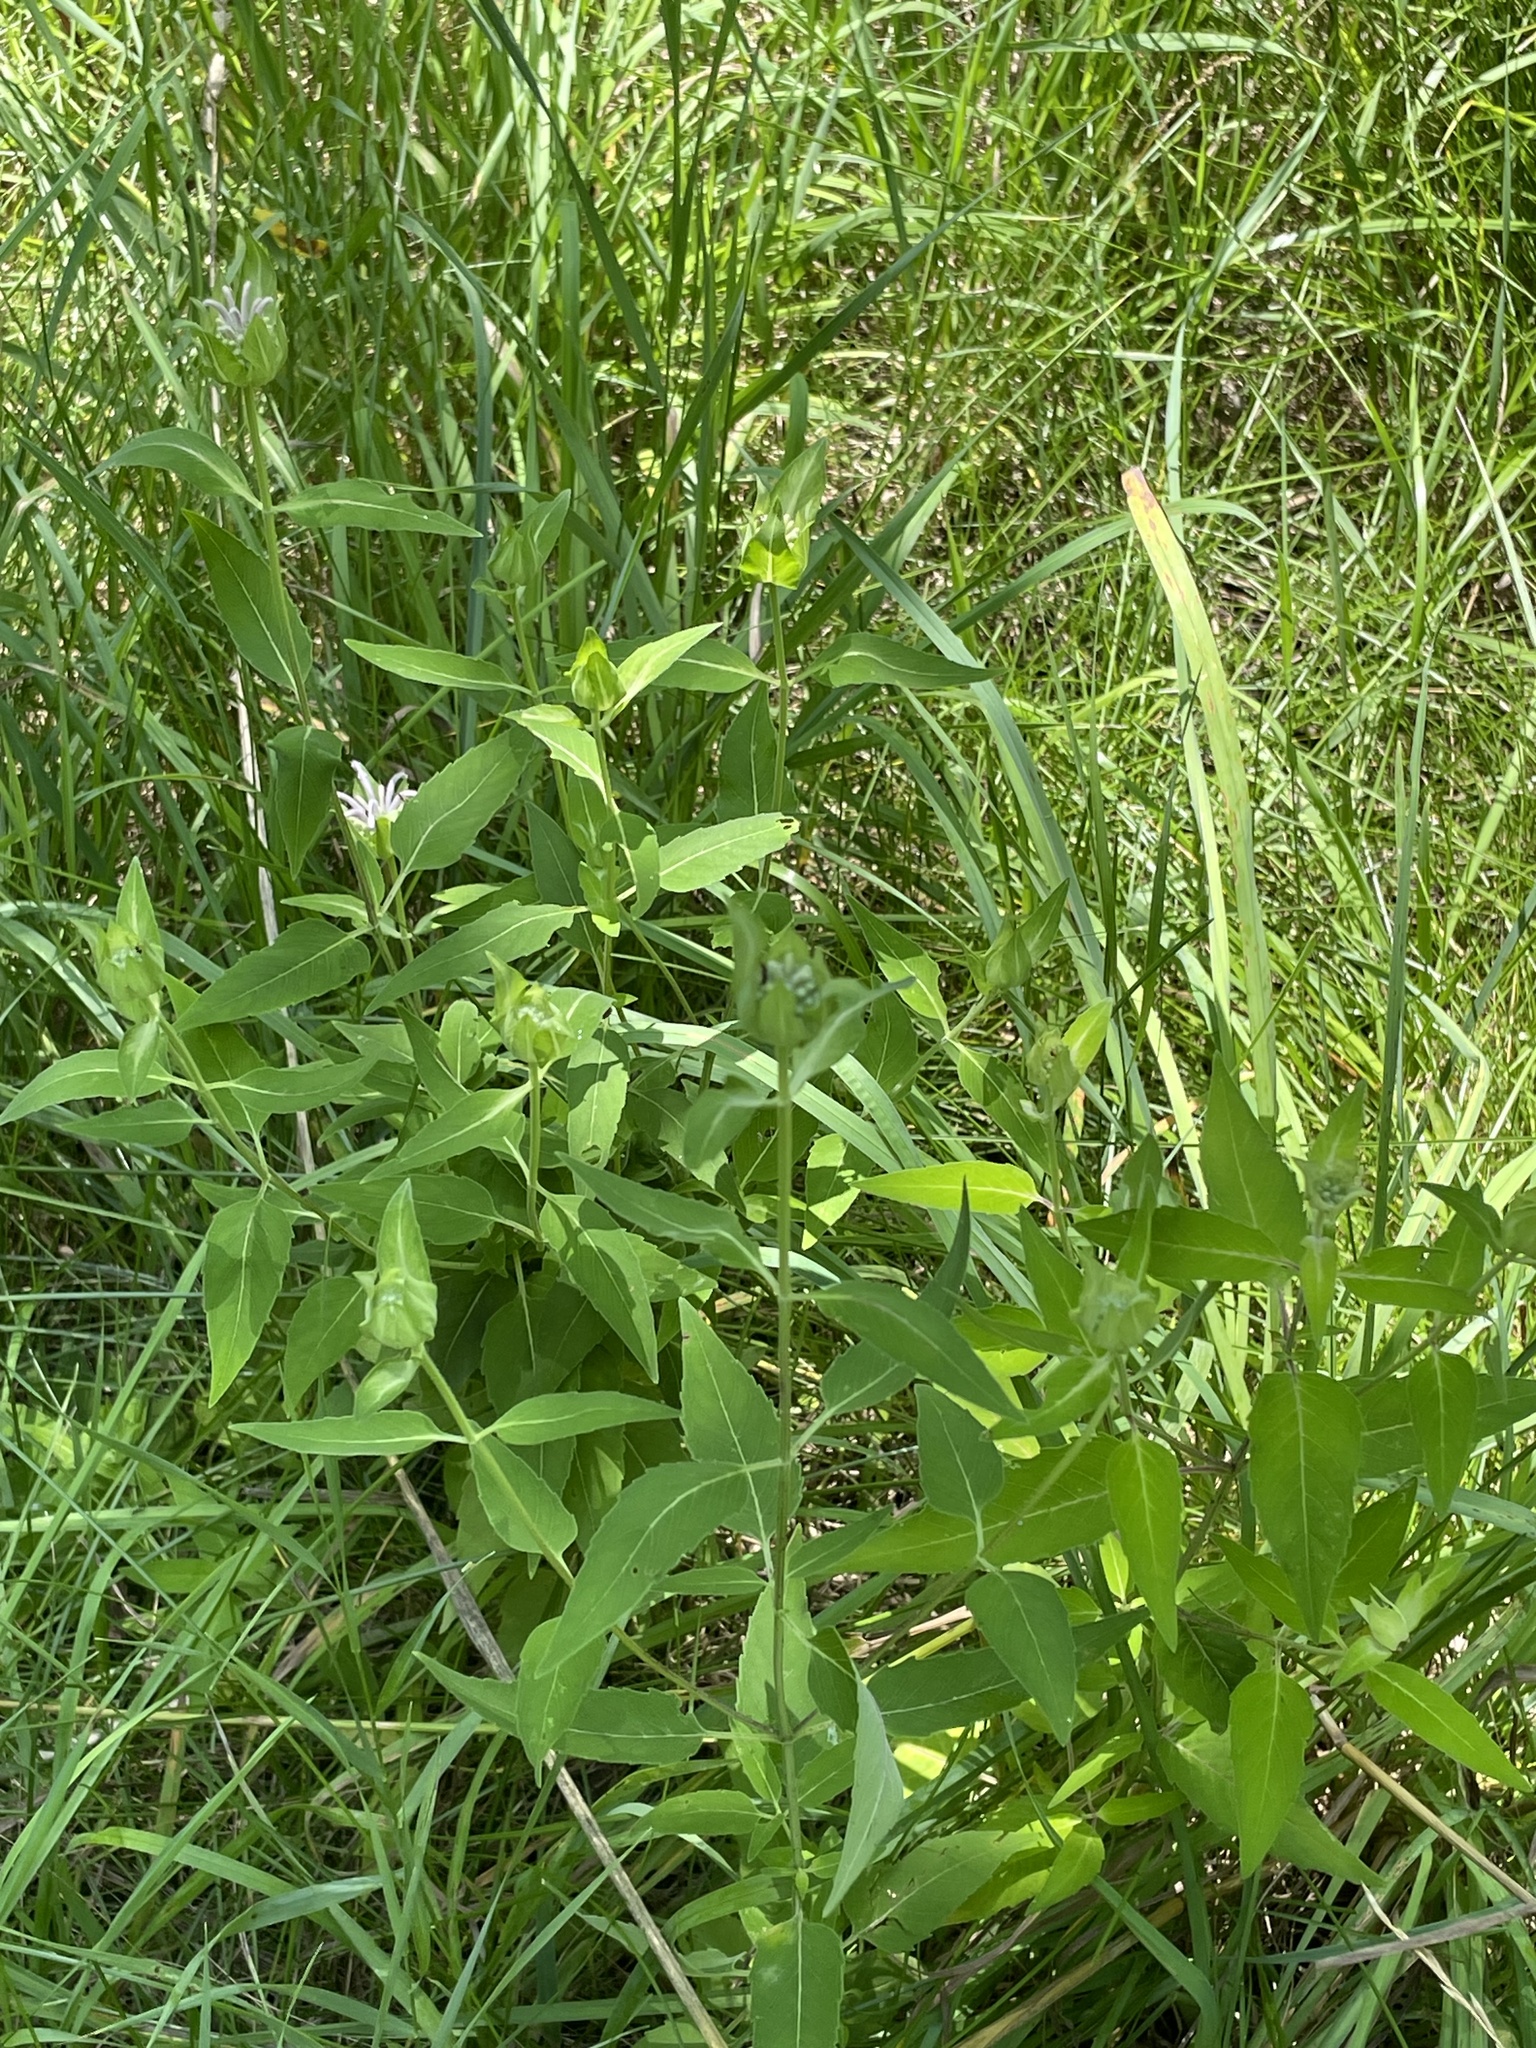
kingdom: Plantae
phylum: Tracheophyta
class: Magnoliopsida
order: Lamiales
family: Lamiaceae
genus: Monarda
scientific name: Monarda fistulosa
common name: Purple beebalm
